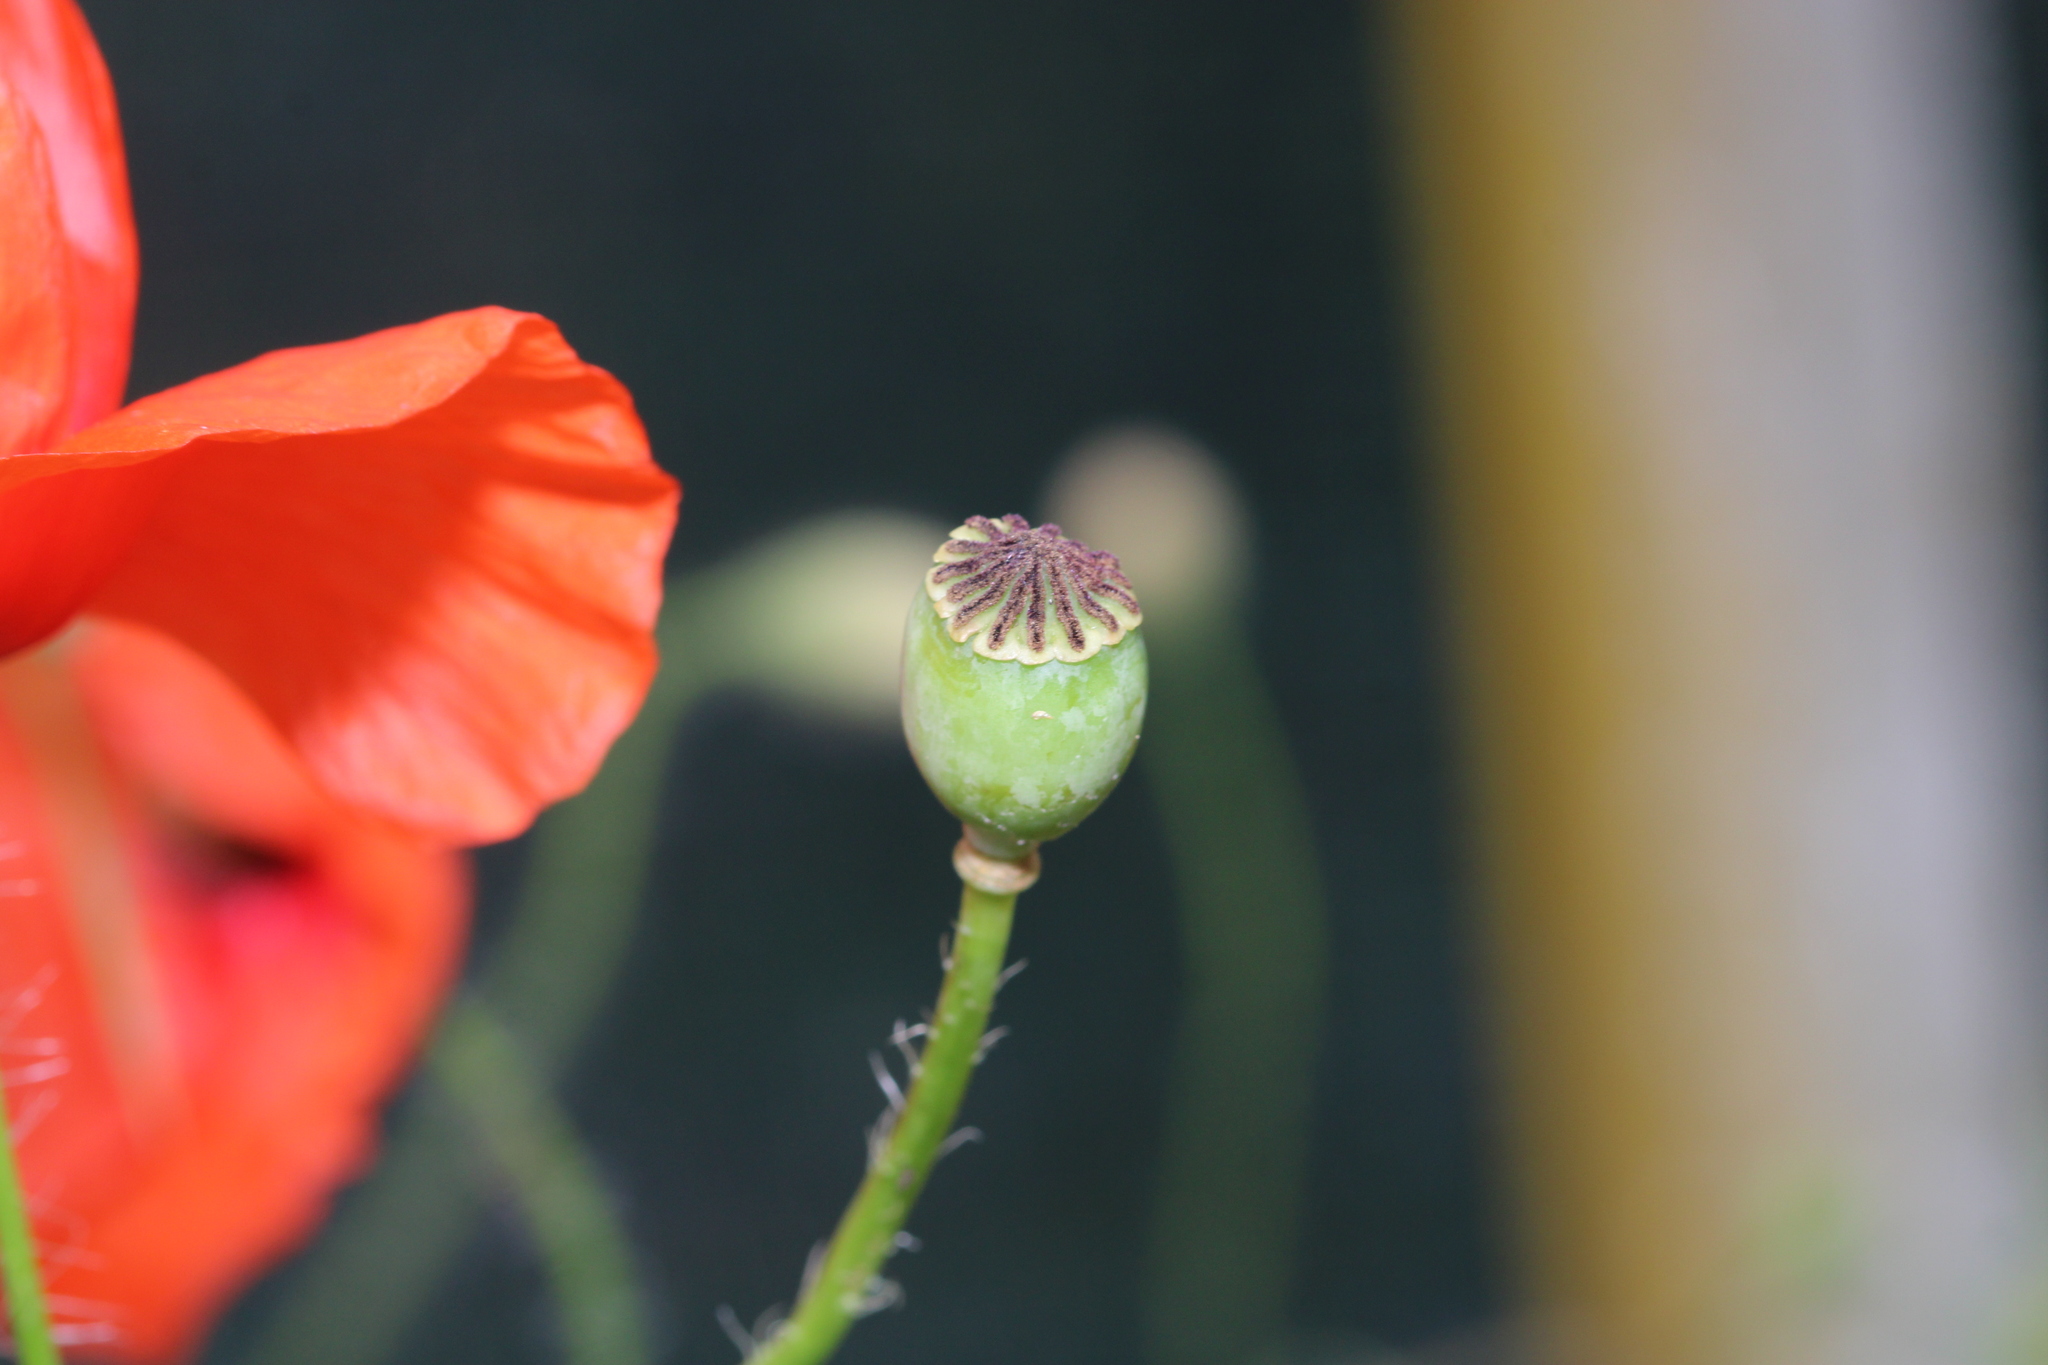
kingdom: Plantae
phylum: Tracheophyta
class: Magnoliopsida
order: Ranunculales
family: Papaveraceae
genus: Papaver
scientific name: Papaver rhoeas
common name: Corn poppy
